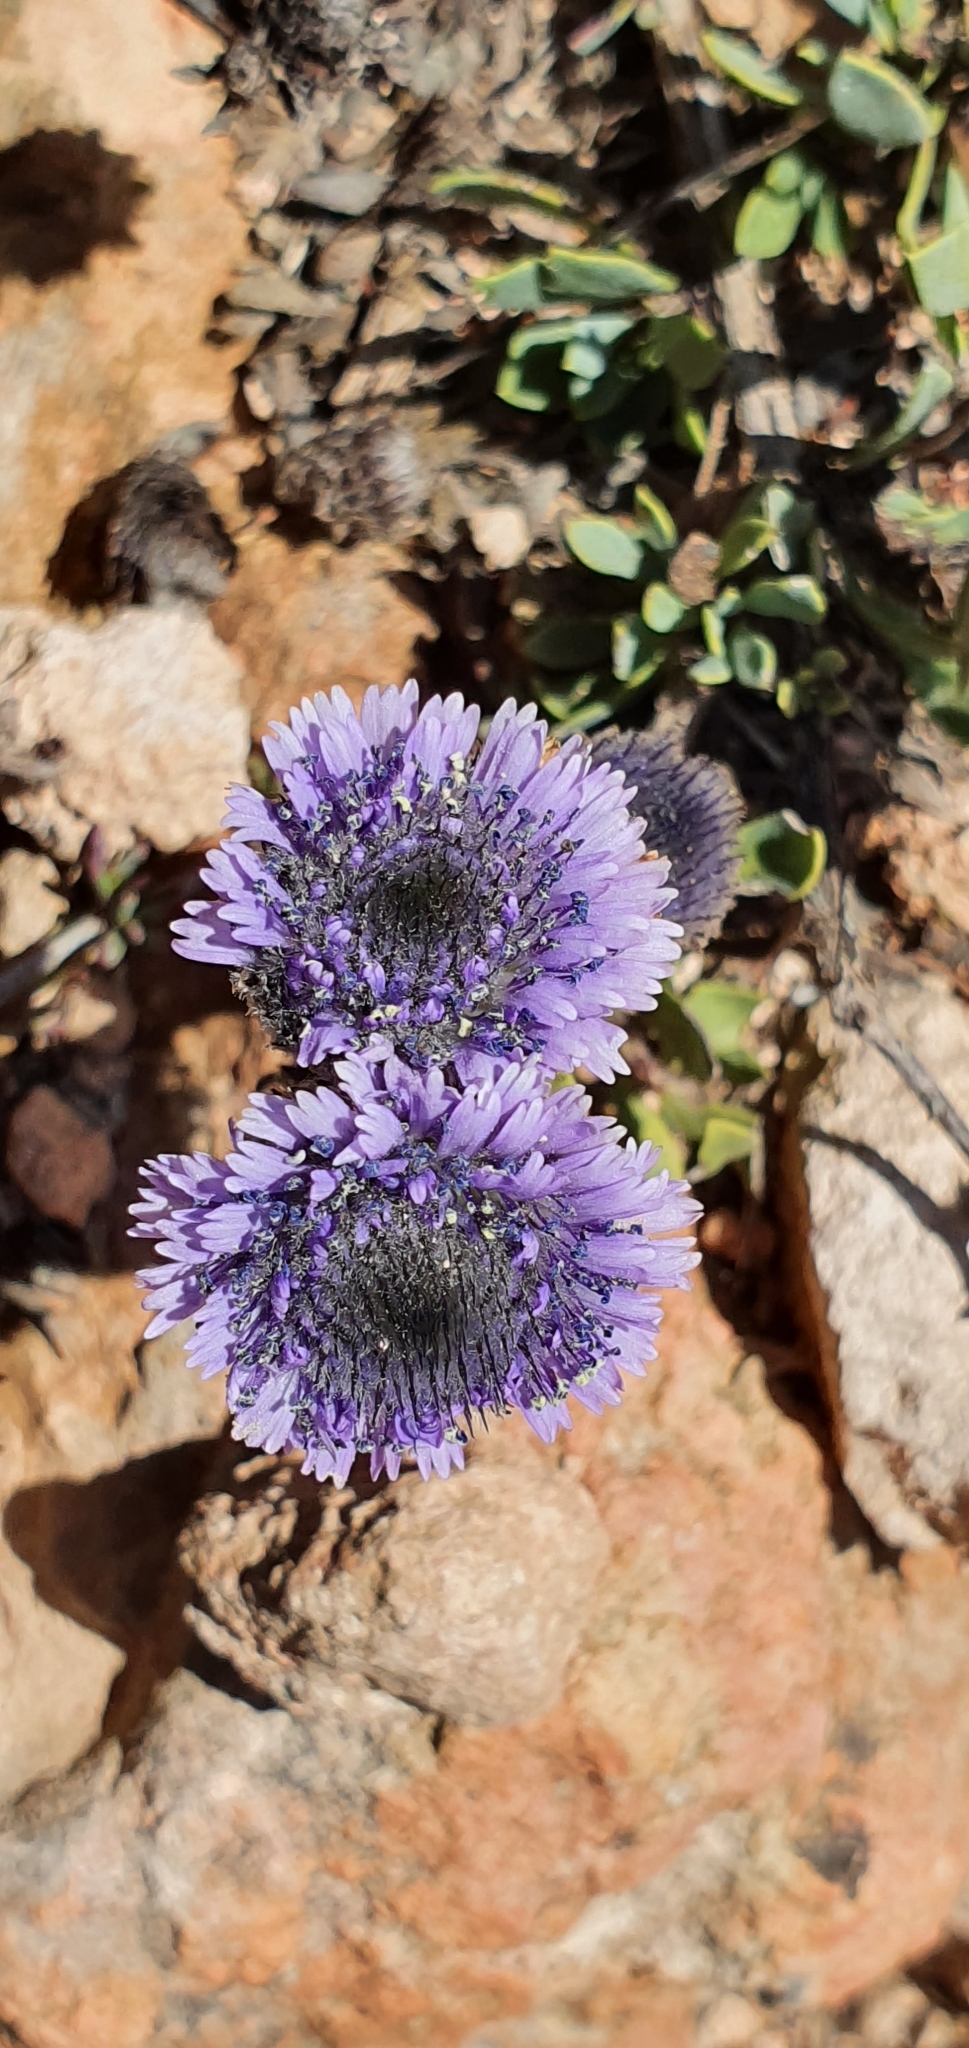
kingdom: Plantae
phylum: Tracheophyta
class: Magnoliopsida
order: Lamiales
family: Plantaginaceae
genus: Globularia
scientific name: Globularia alypum
